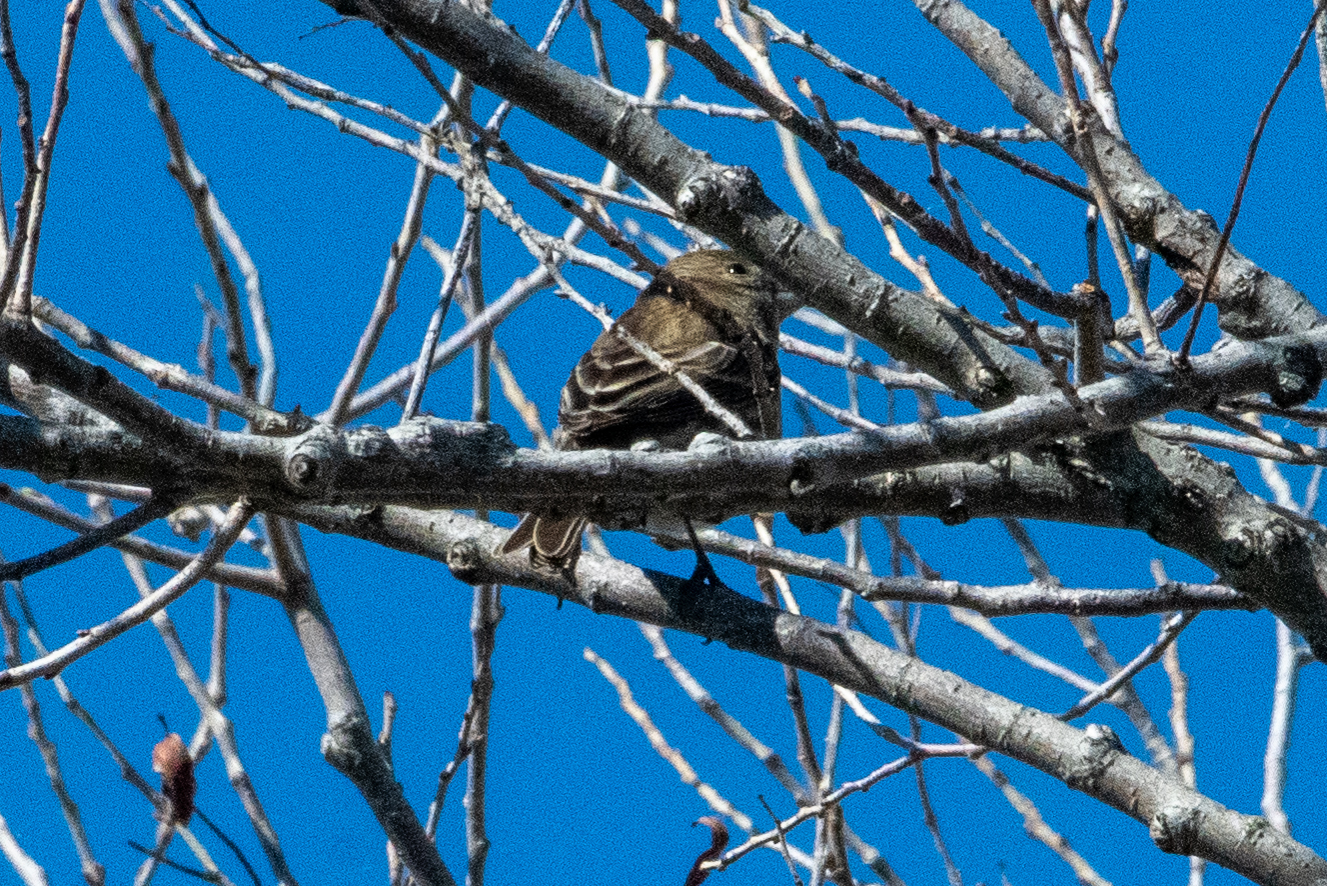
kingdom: Animalia
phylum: Chordata
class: Aves
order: Passeriformes
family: Fringillidae
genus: Haemorhous
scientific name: Haemorhous mexicanus
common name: House finch
